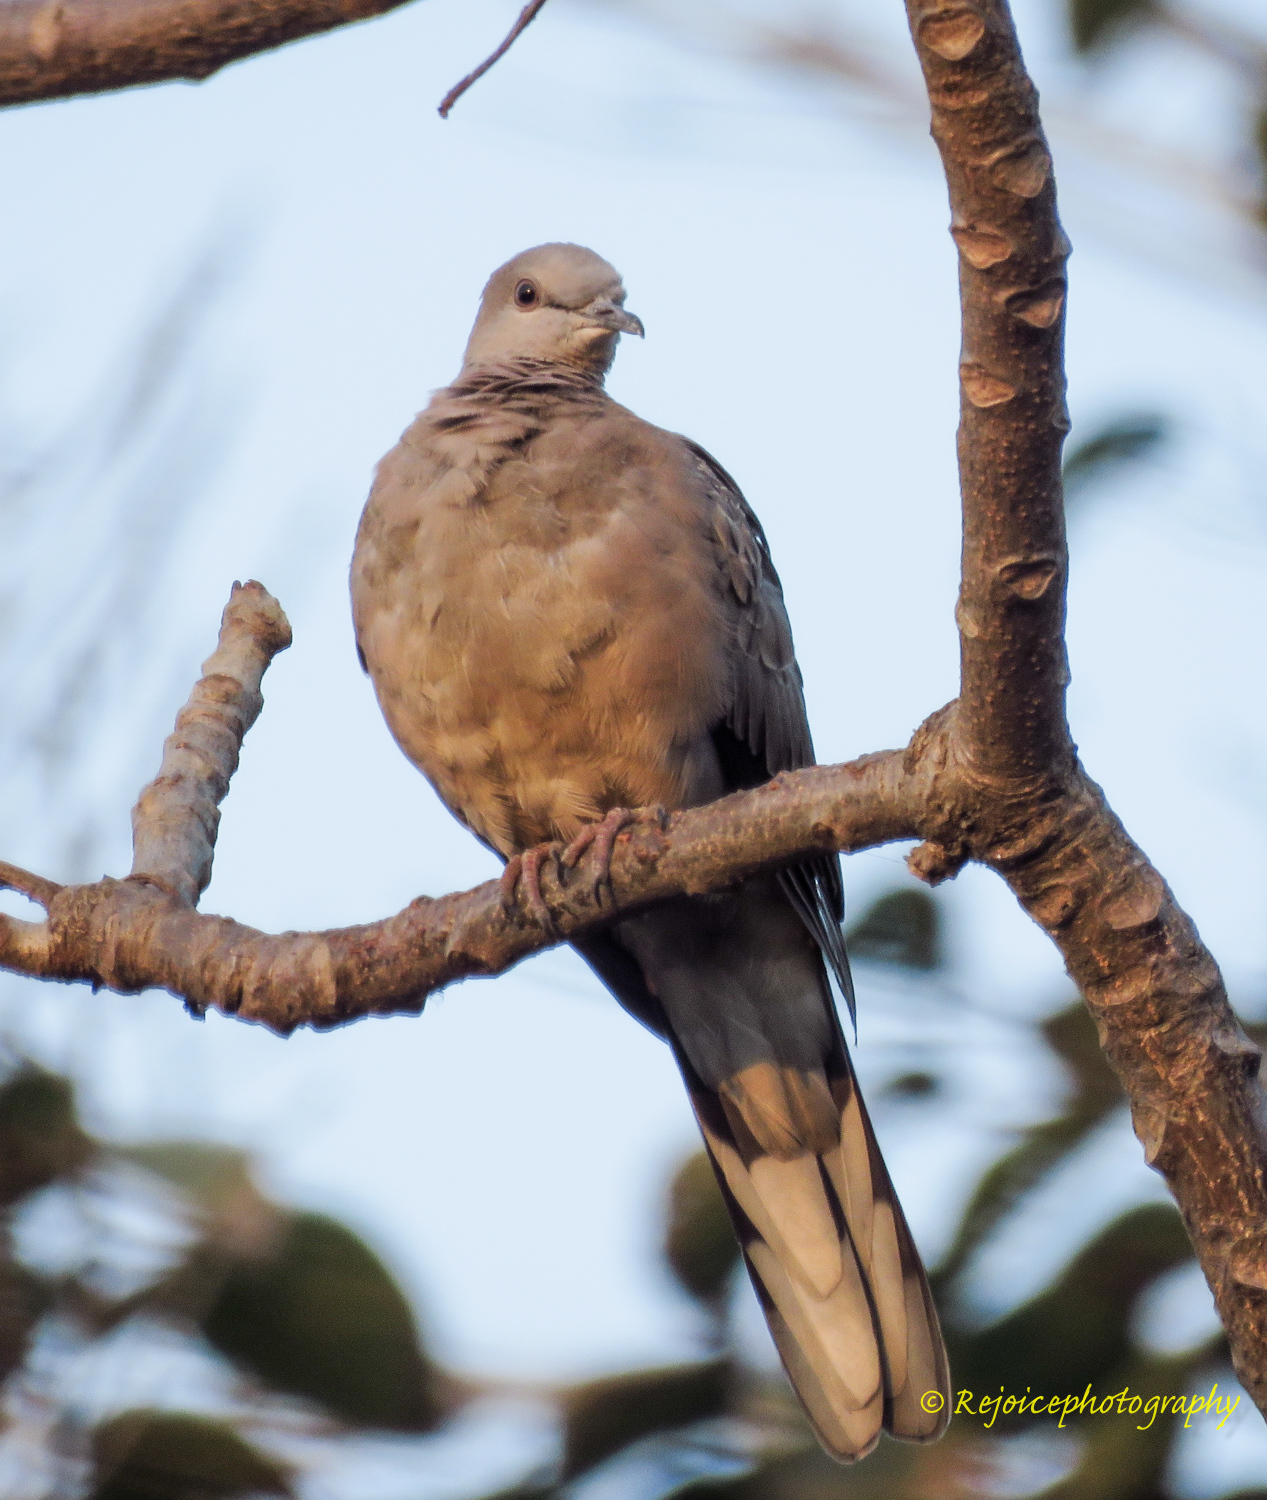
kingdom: Animalia
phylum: Chordata
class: Aves
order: Columbiformes
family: Columbidae
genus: Spilopelia
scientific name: Spilopelia chinensis
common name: Spotted dove
